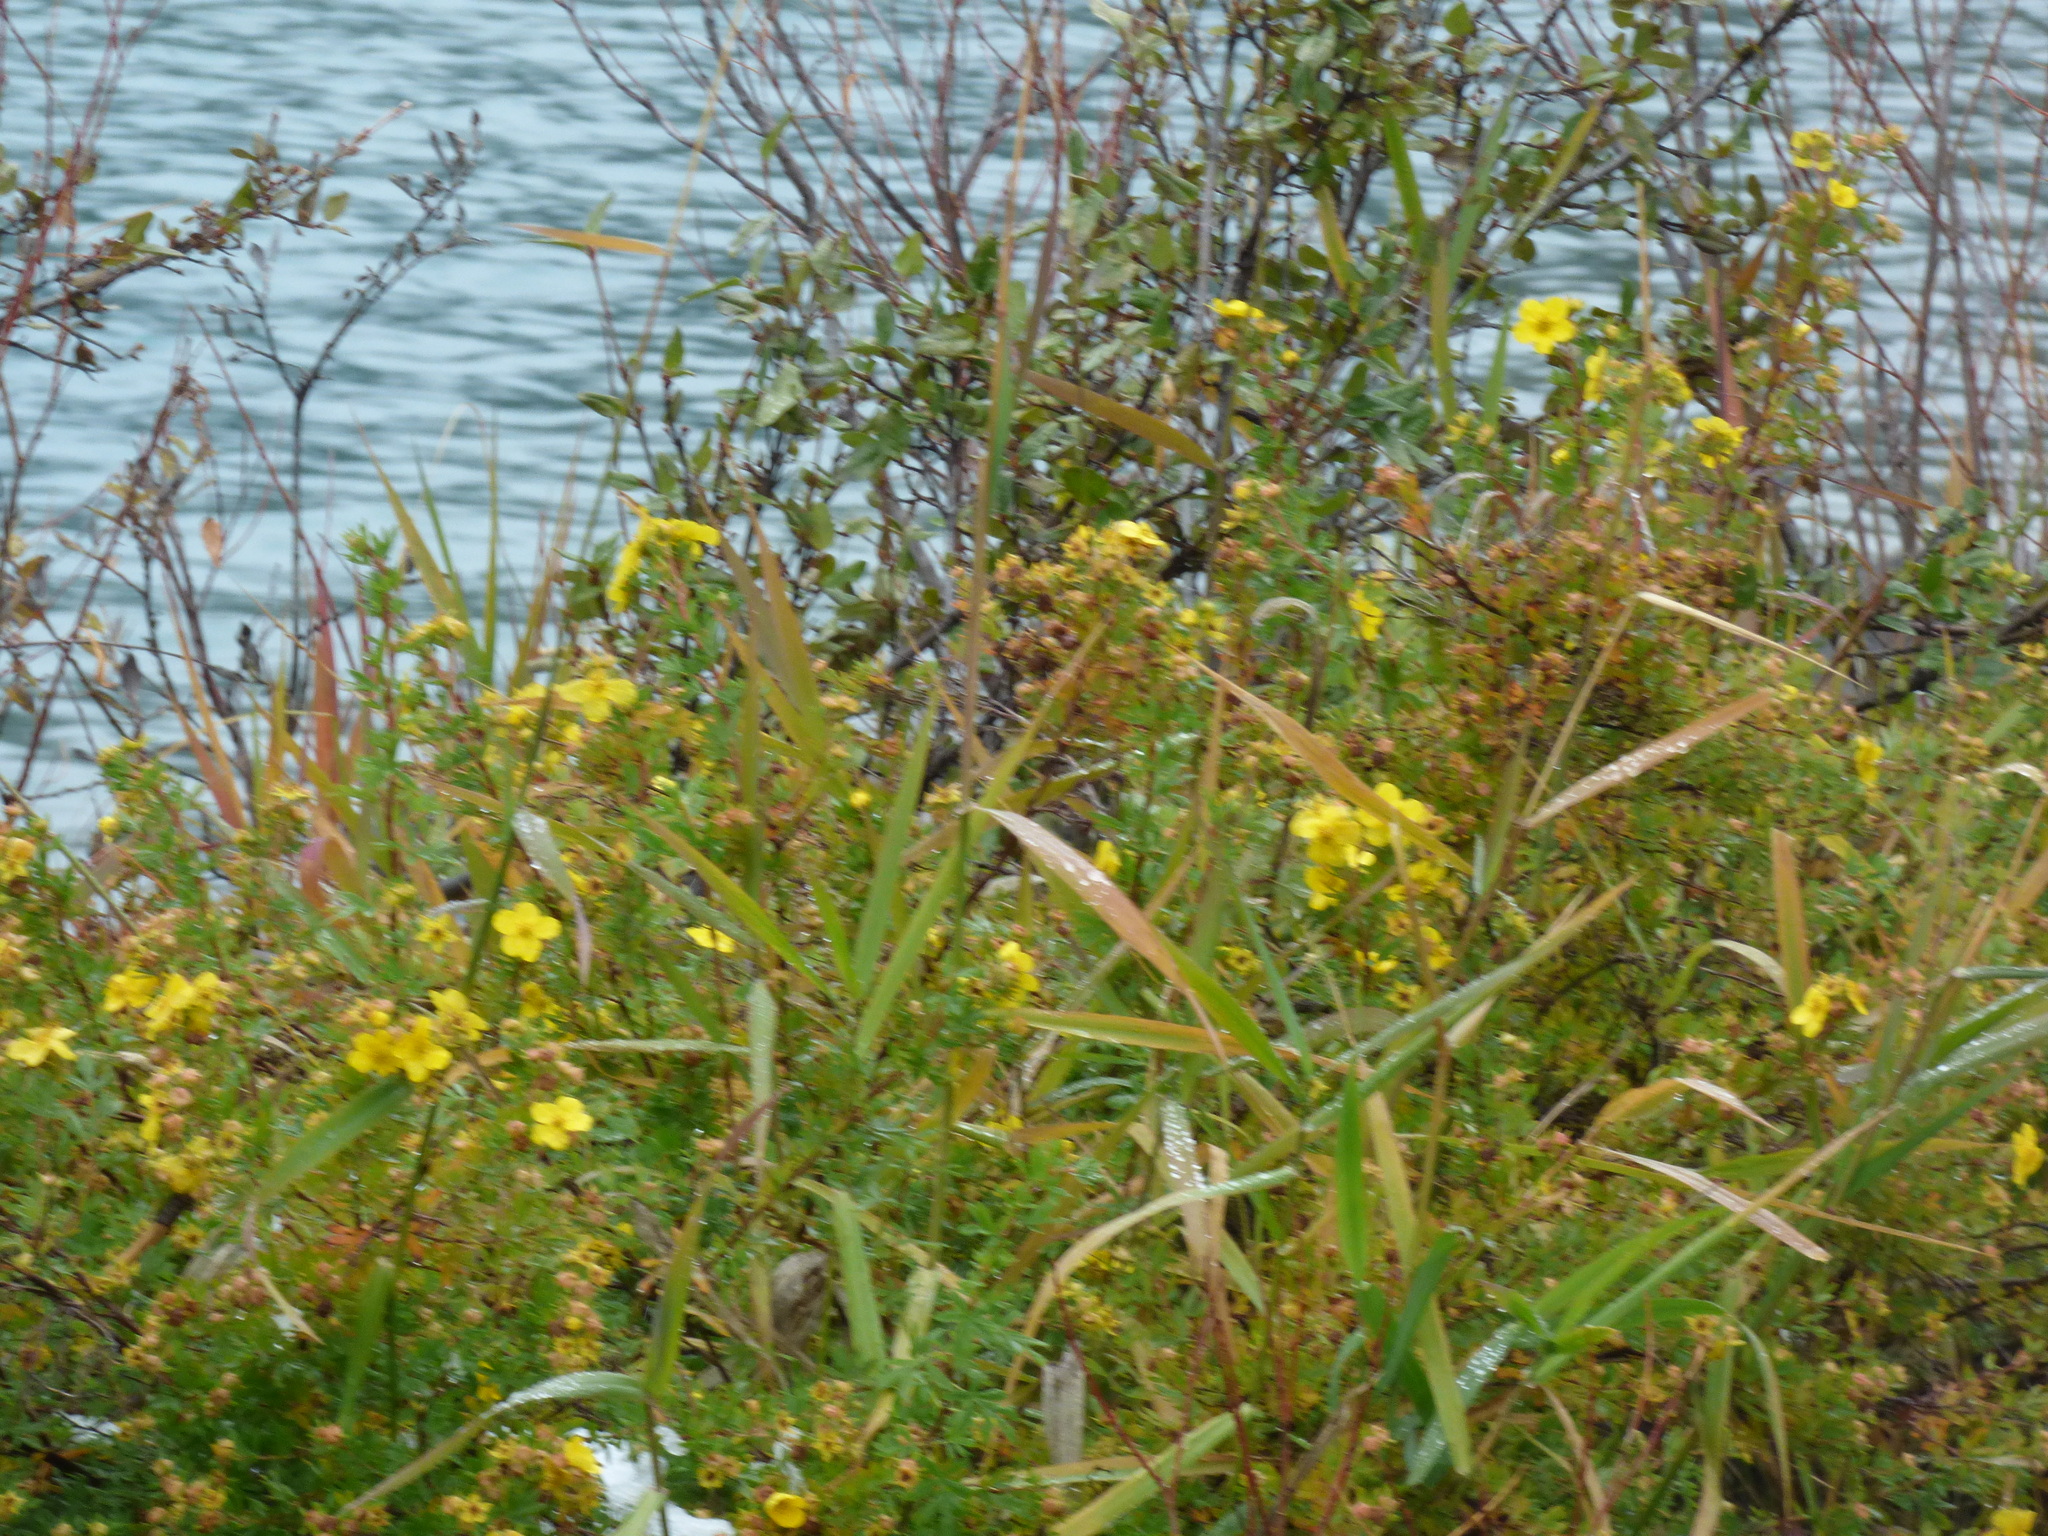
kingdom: Plantae
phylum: Tracheophyta
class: Magnoliopsida
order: Rosales
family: Rosaceae
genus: Dasiphora
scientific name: Dasiphora fruticosa
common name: Shrubby cinquefoil
